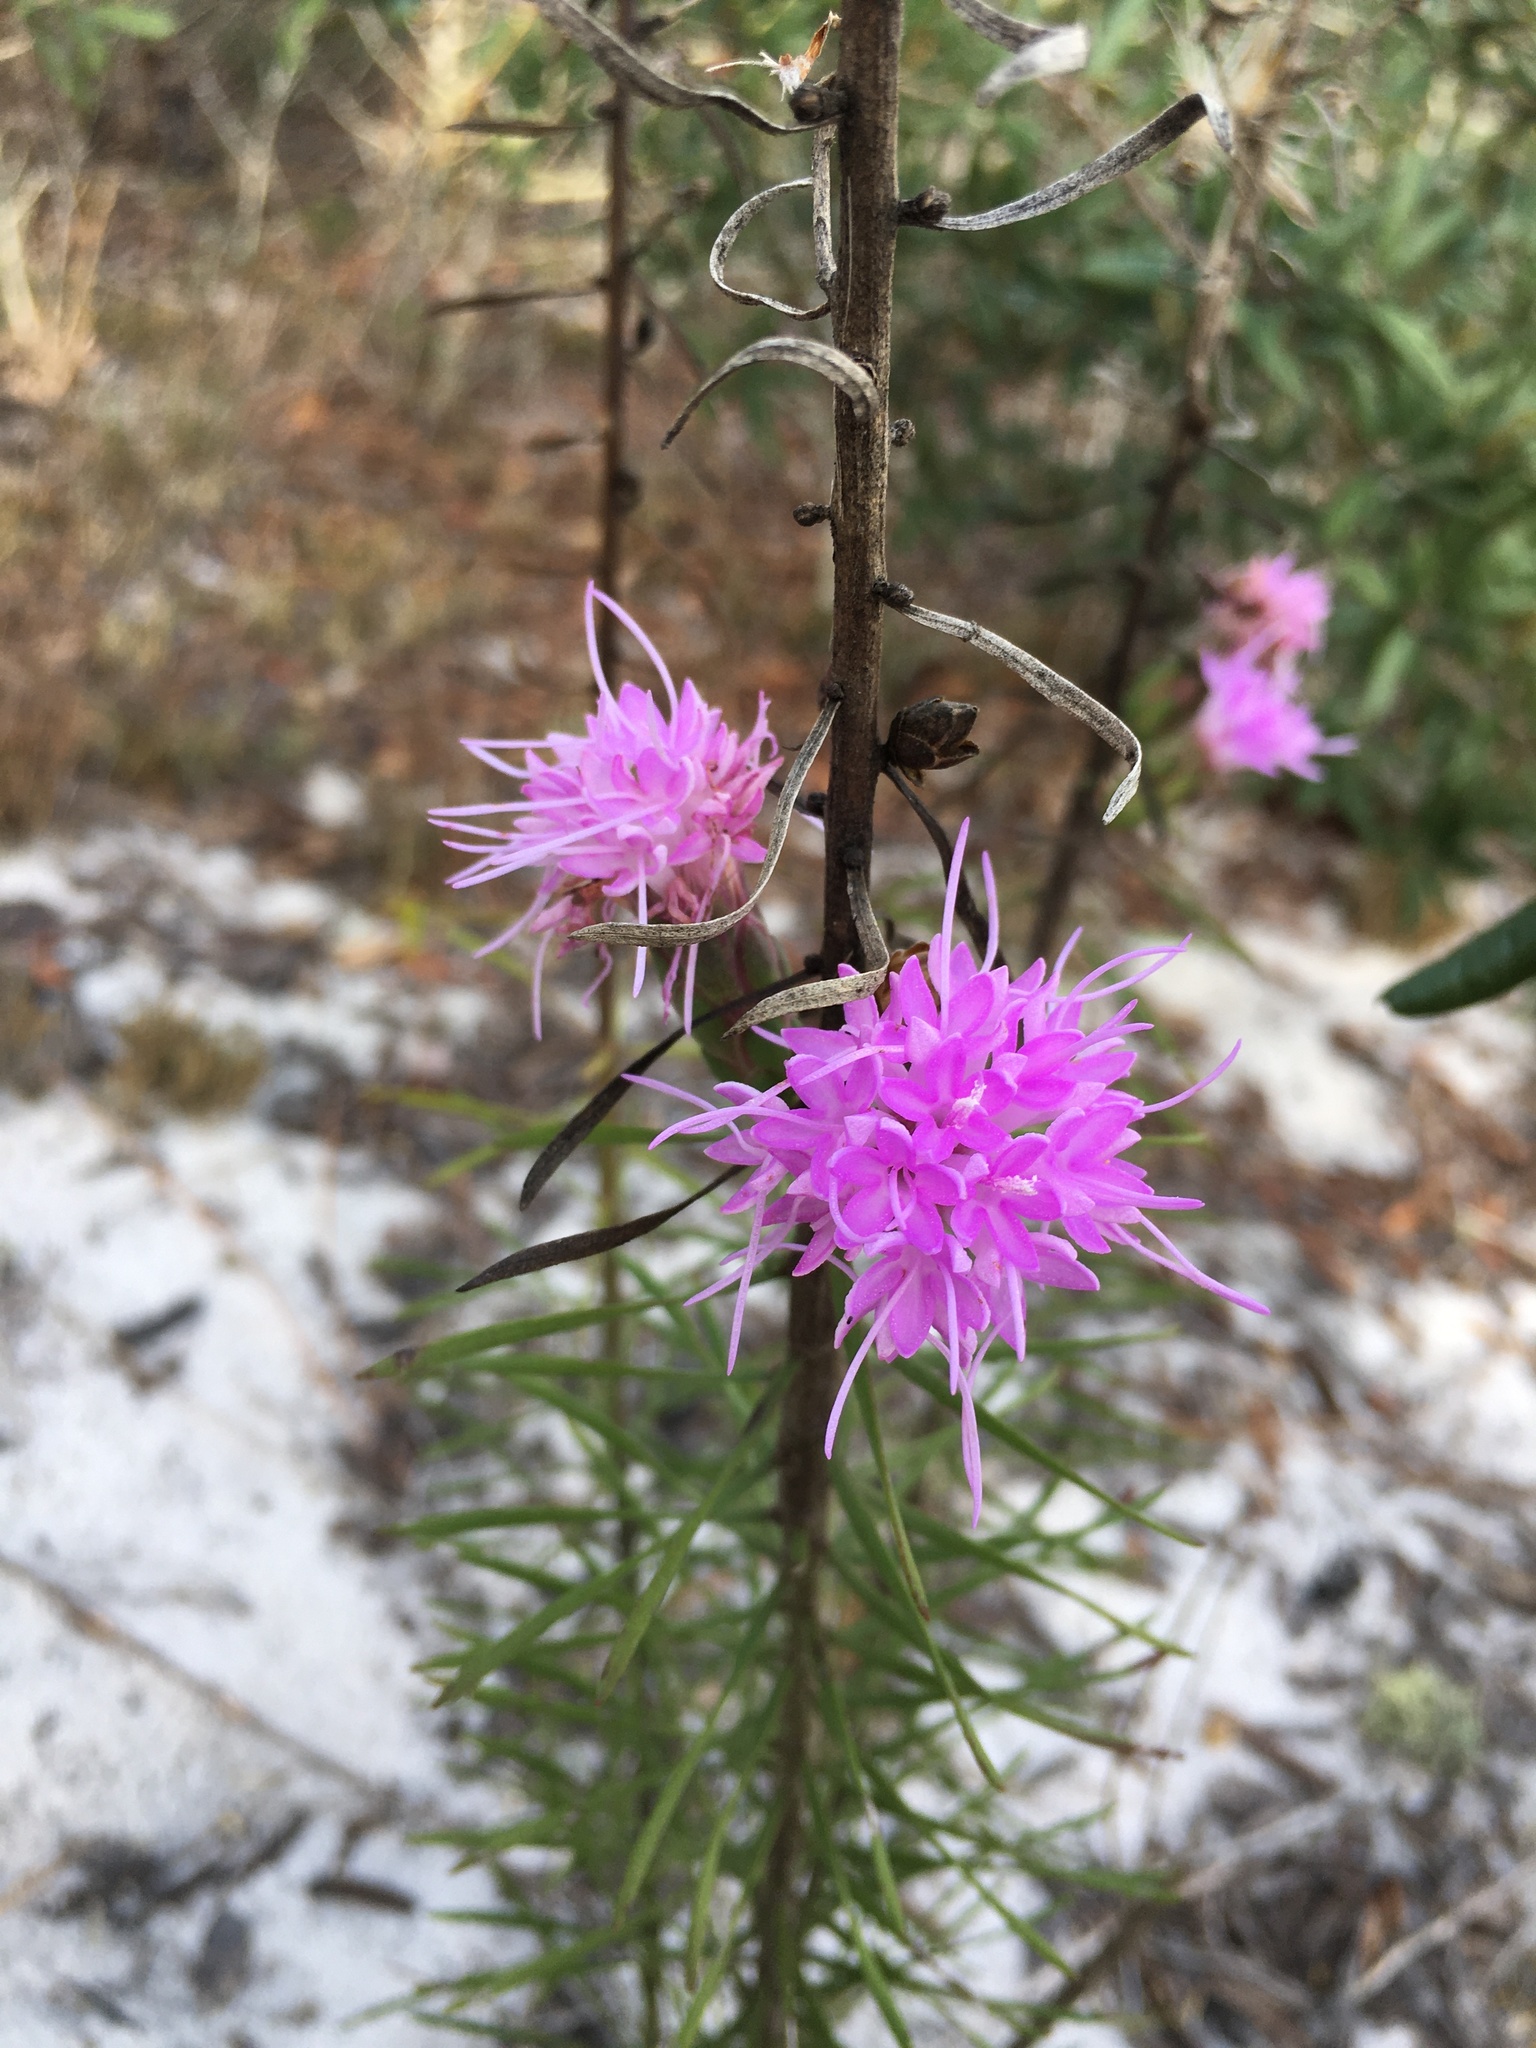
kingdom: Plantae
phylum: Tracheophyta
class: Magnoliopsida
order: Asterales
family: Asteraceae
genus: Liatris
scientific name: Liatris ohlingerae
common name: Scrub blazingstar
